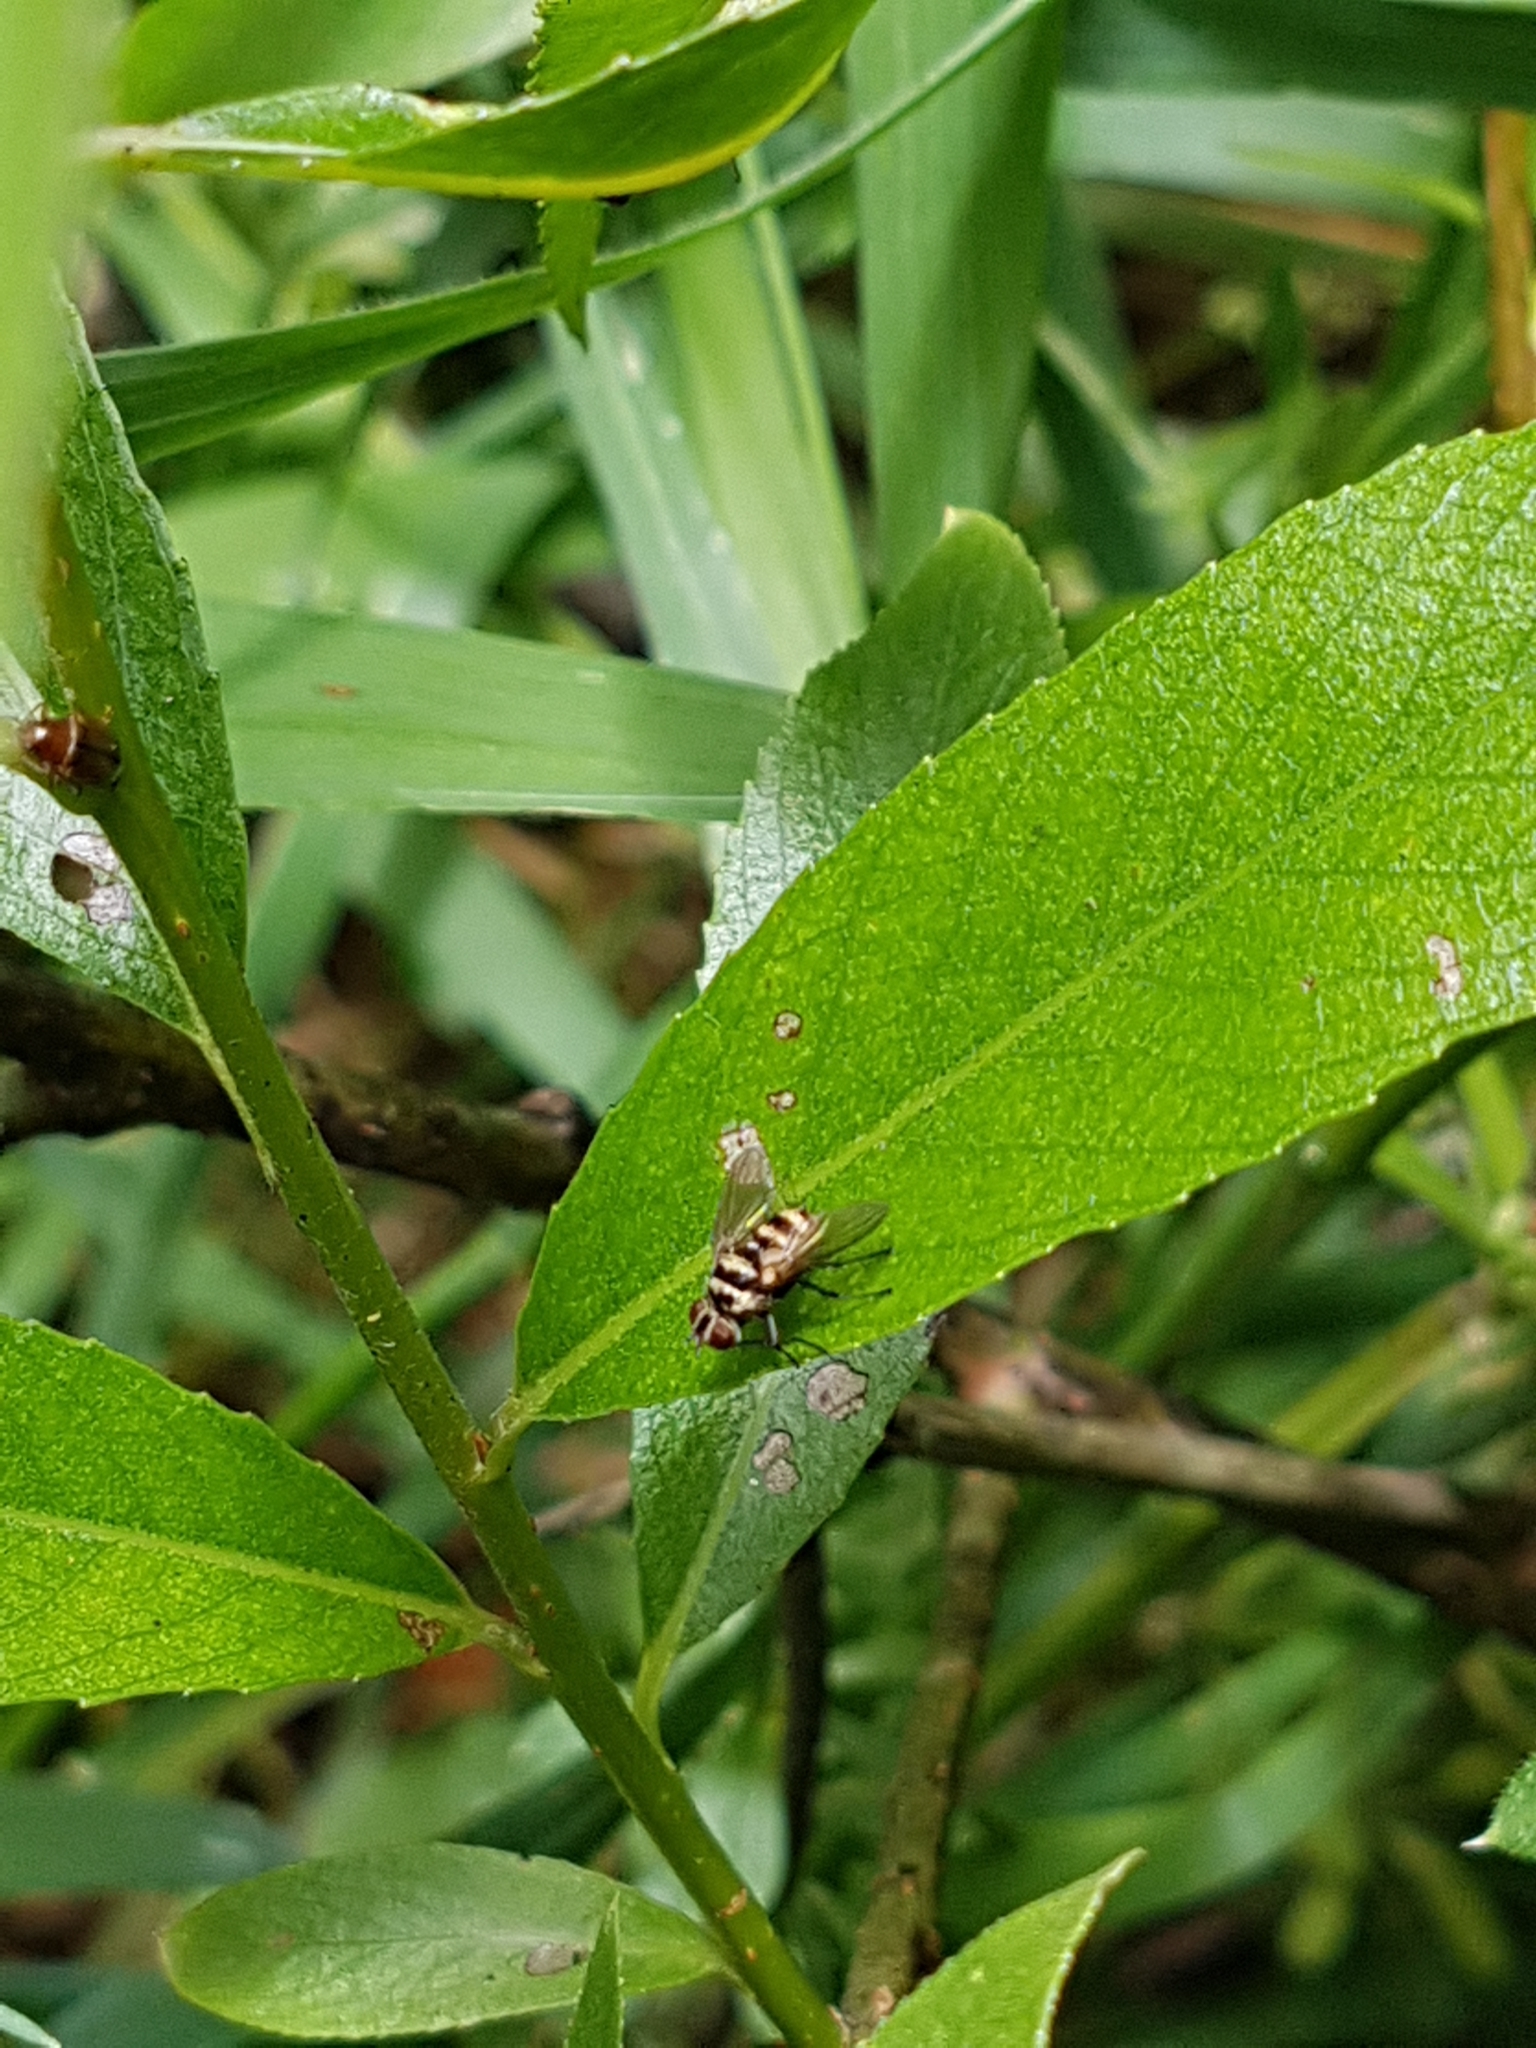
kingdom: Animalia
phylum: Arthropoda
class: Insecta
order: Diptera
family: Tachinidae
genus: Trigonospila
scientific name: Trigonospila brevifacies
